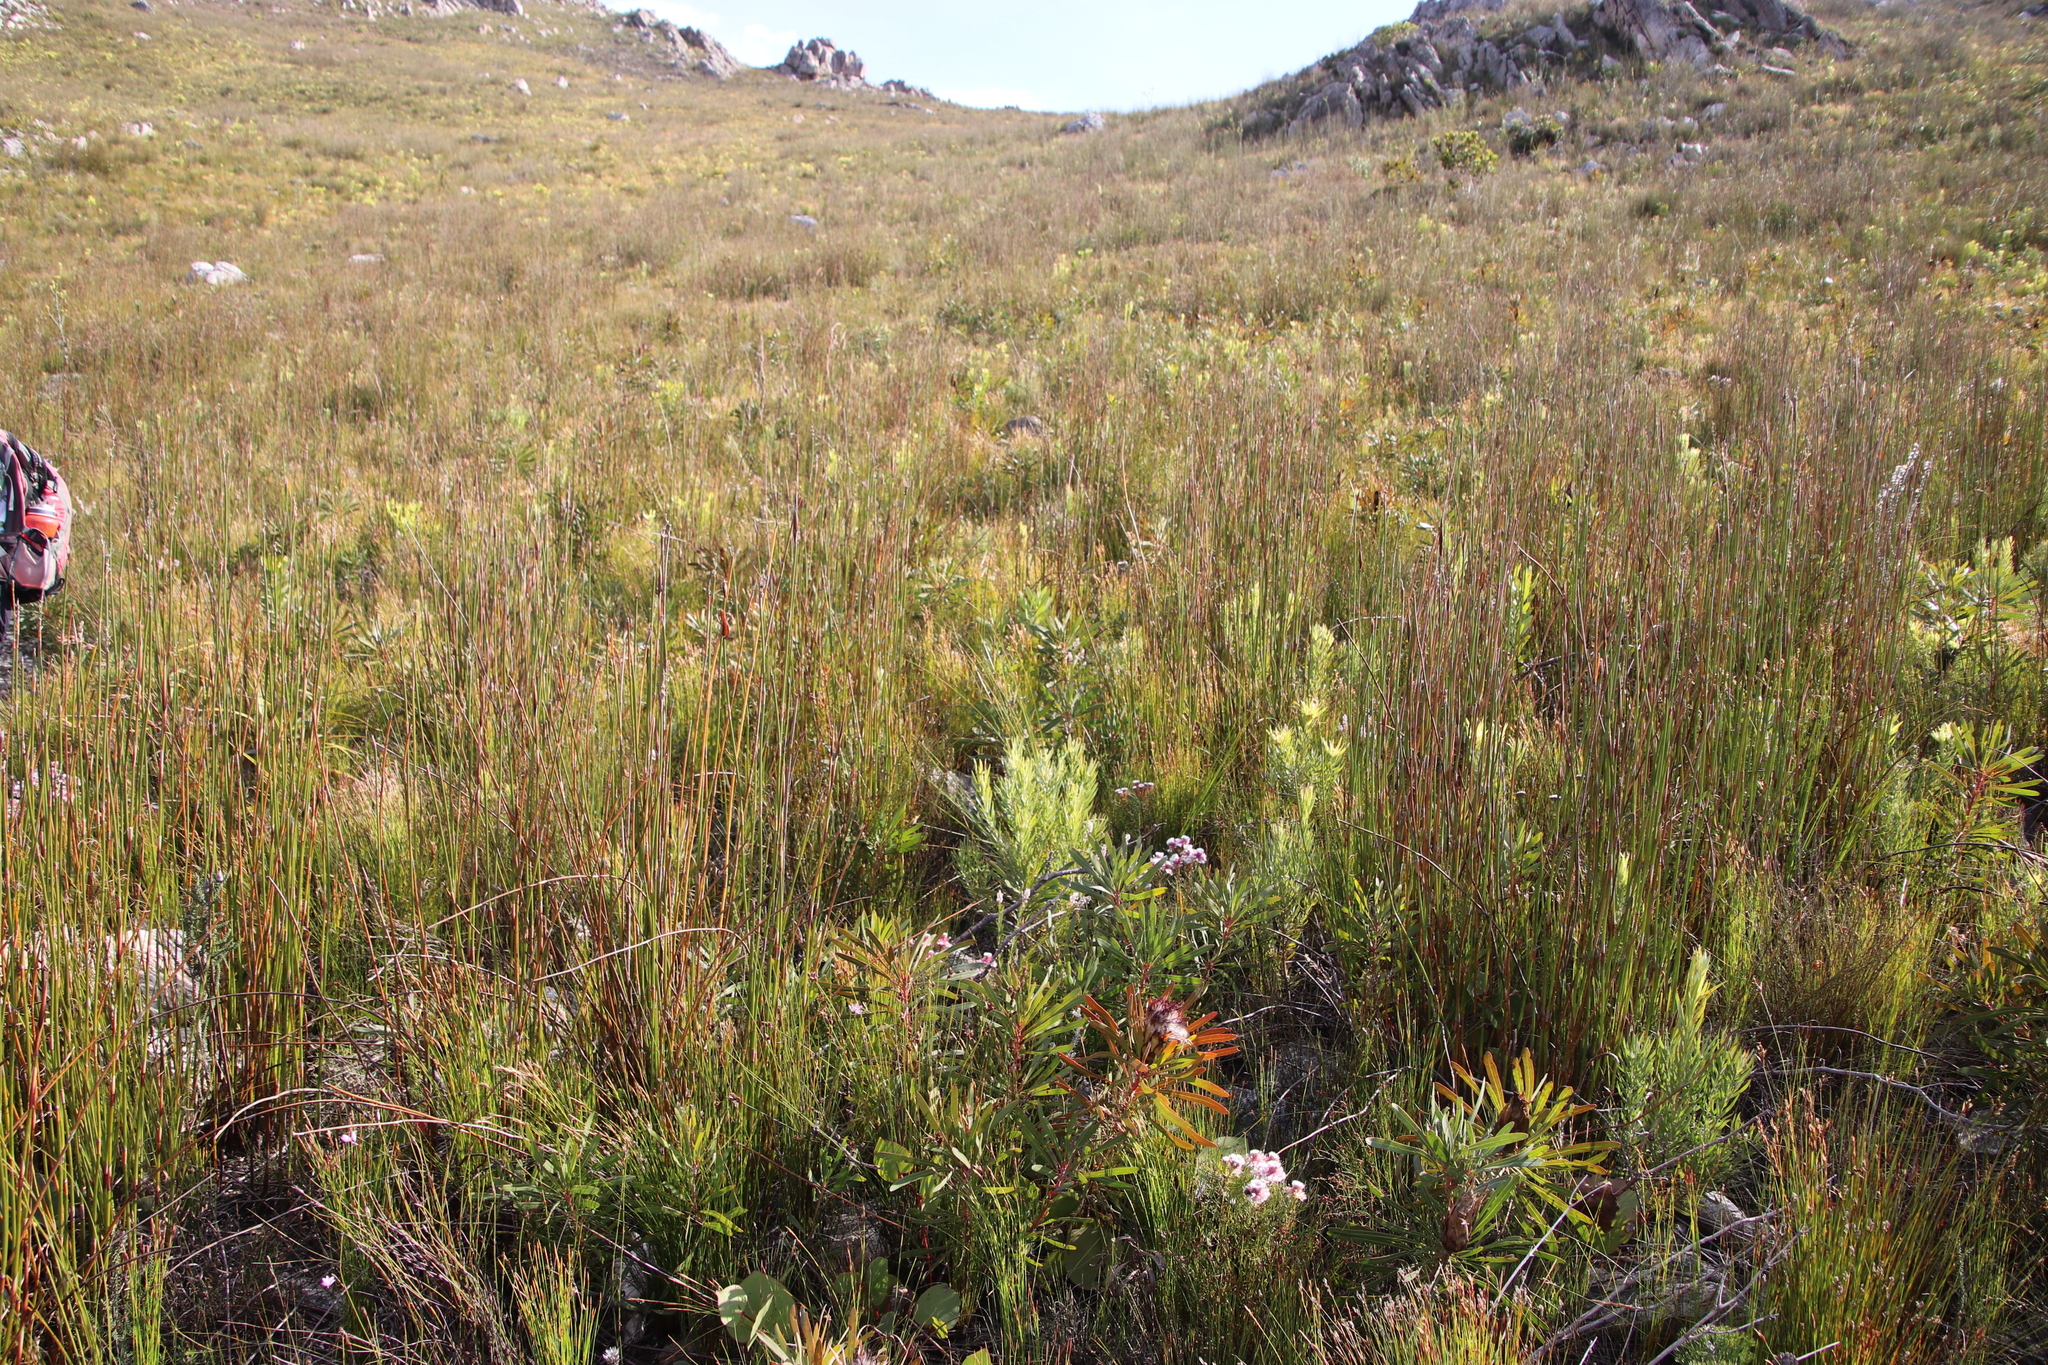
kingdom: Plantae
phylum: Tracheophyta
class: Magnoliopsida
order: Proteales
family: Proteaceae
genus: Protea
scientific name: Protea longifolia
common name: Long-leaf sugarbush
